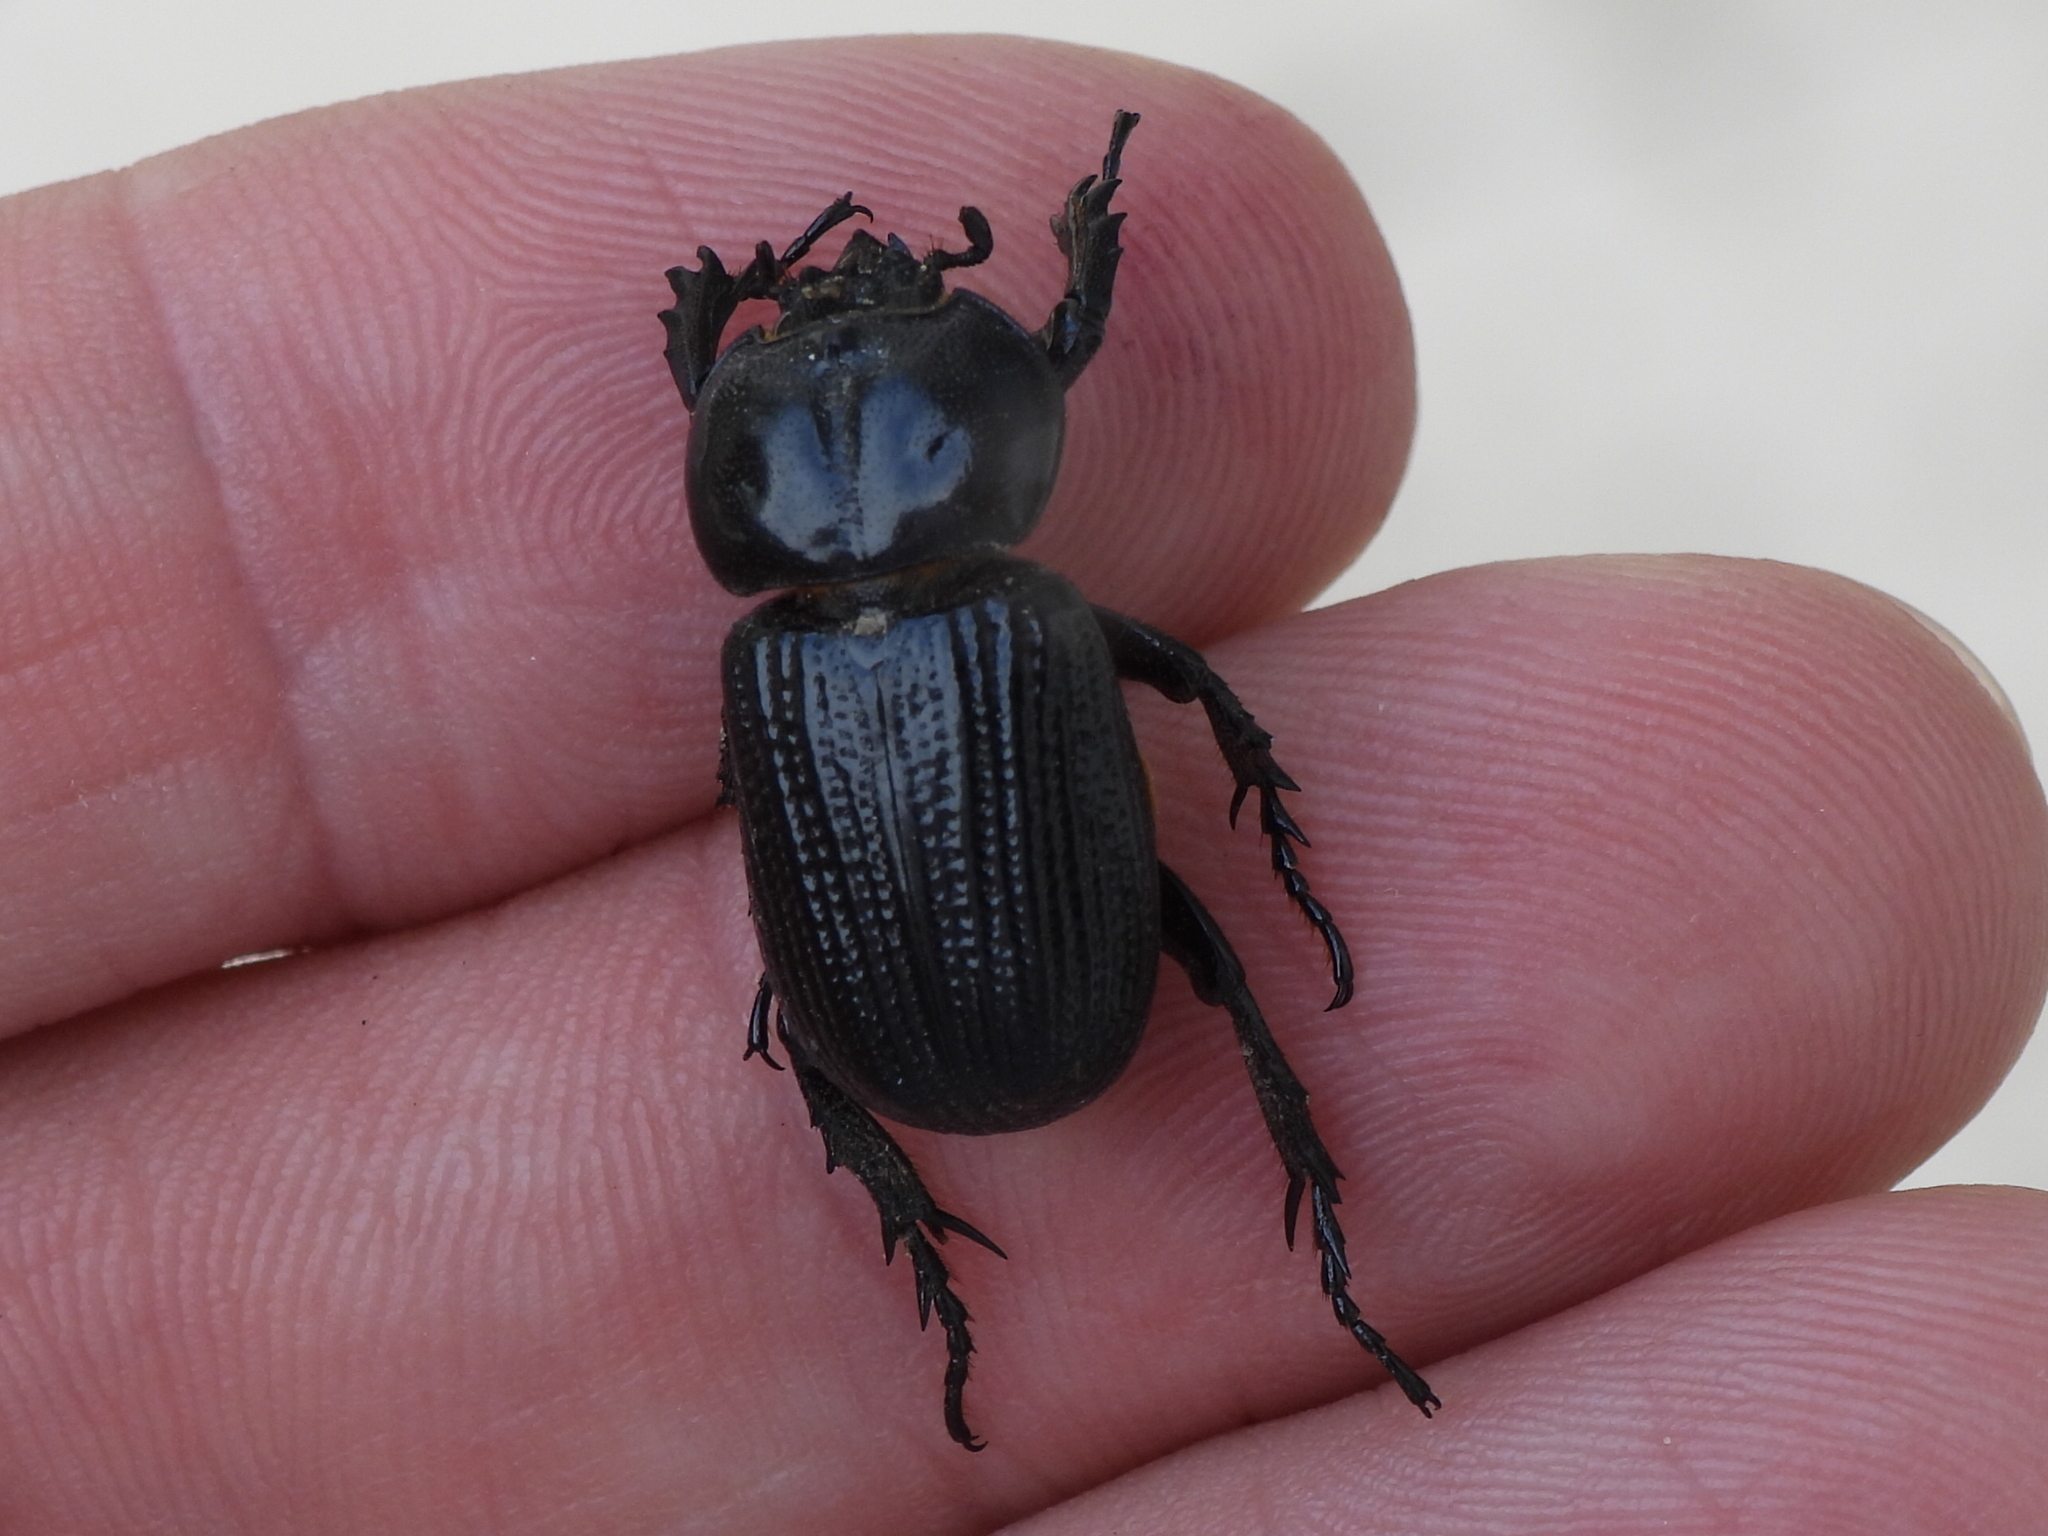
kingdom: Animalia
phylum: Arthropoda
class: Insecta
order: Coleoptera
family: Scarabaeidae
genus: Phileurus
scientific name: Phileurus valgus
